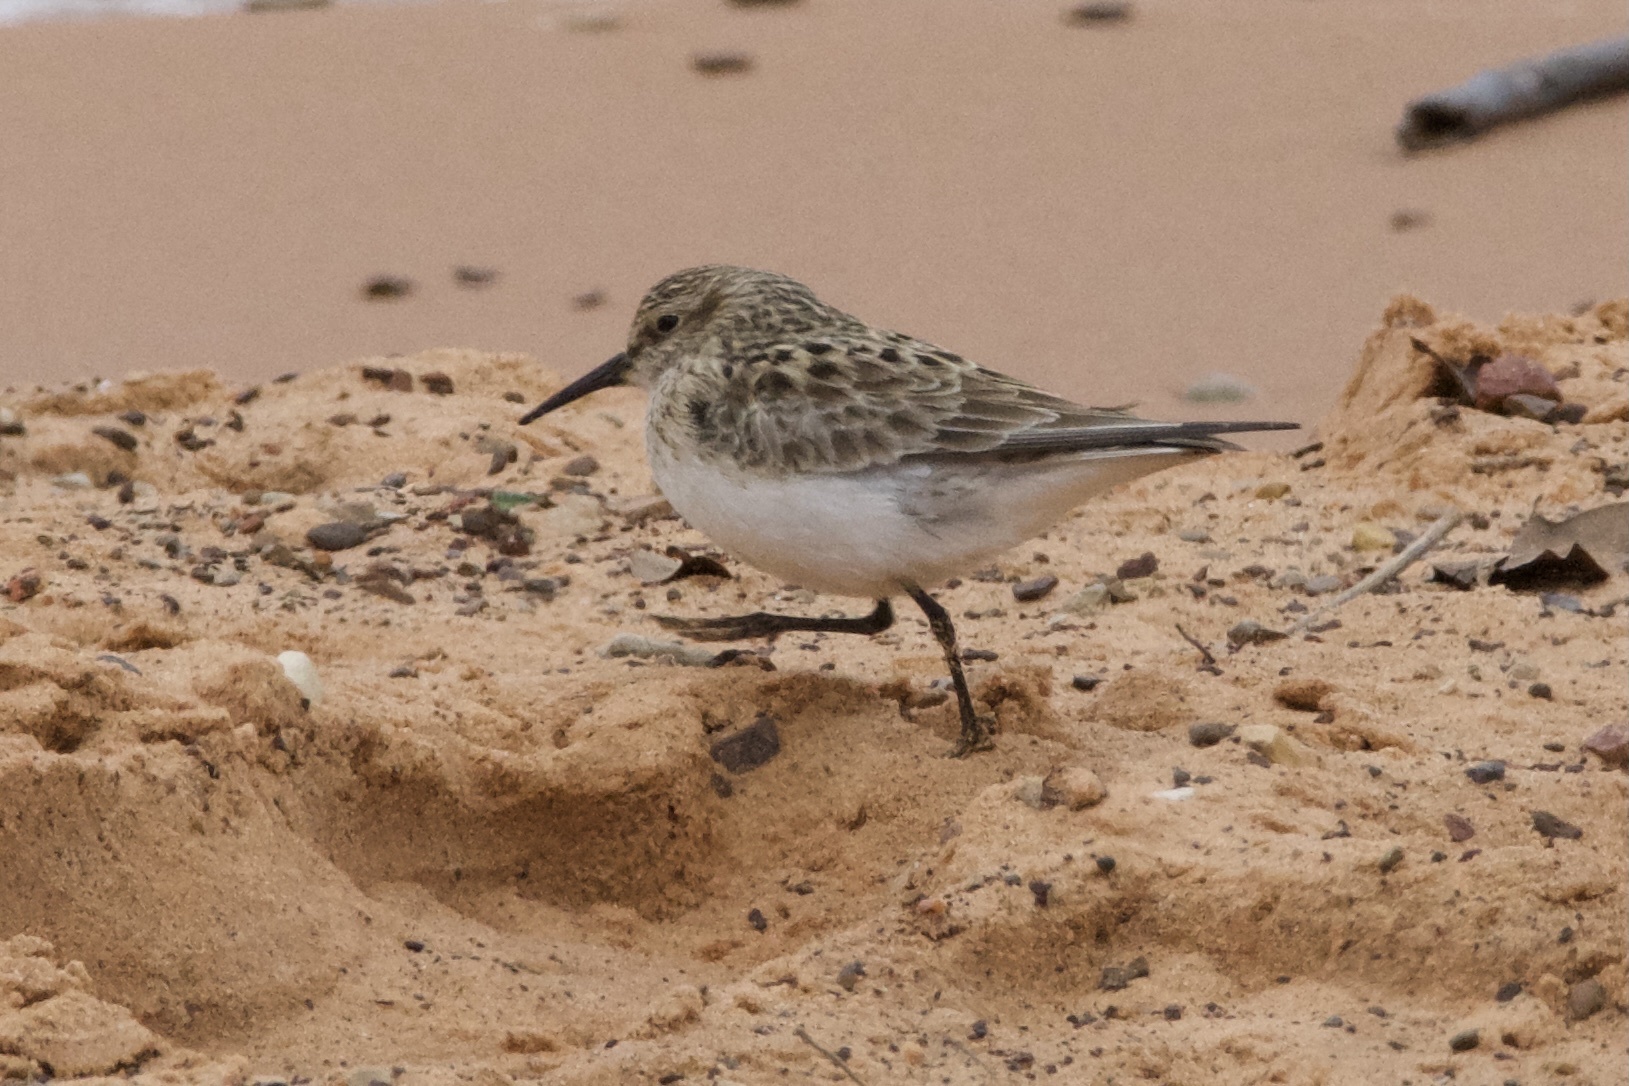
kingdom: Animalia
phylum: Chordata
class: Aves
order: Charadriiformes
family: Scolopacidae
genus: Calidris
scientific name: Calidris bairdii
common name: Baird's sandpiper
